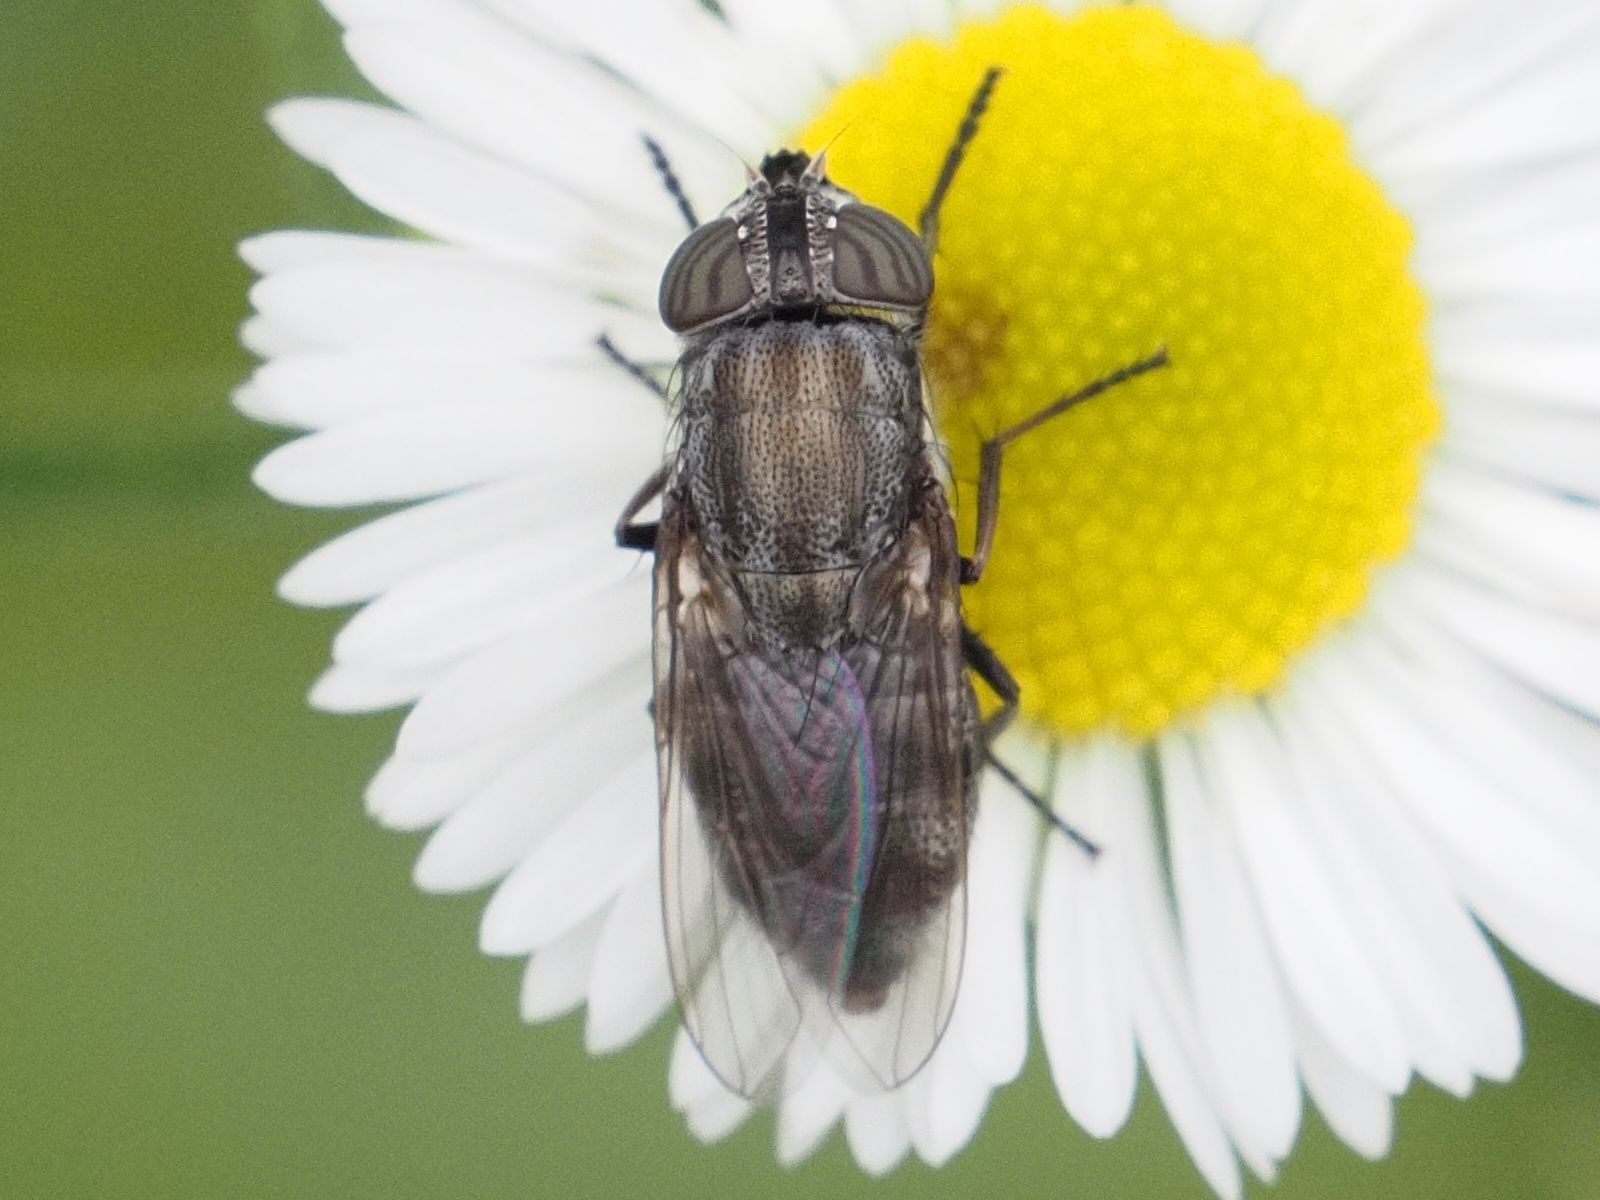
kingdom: Animalia
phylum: Arthropoda
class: Insecta
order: Diptera
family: Calliphoridae
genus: Stomorhina
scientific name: Stomorhina lunata
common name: Locust blowfly
